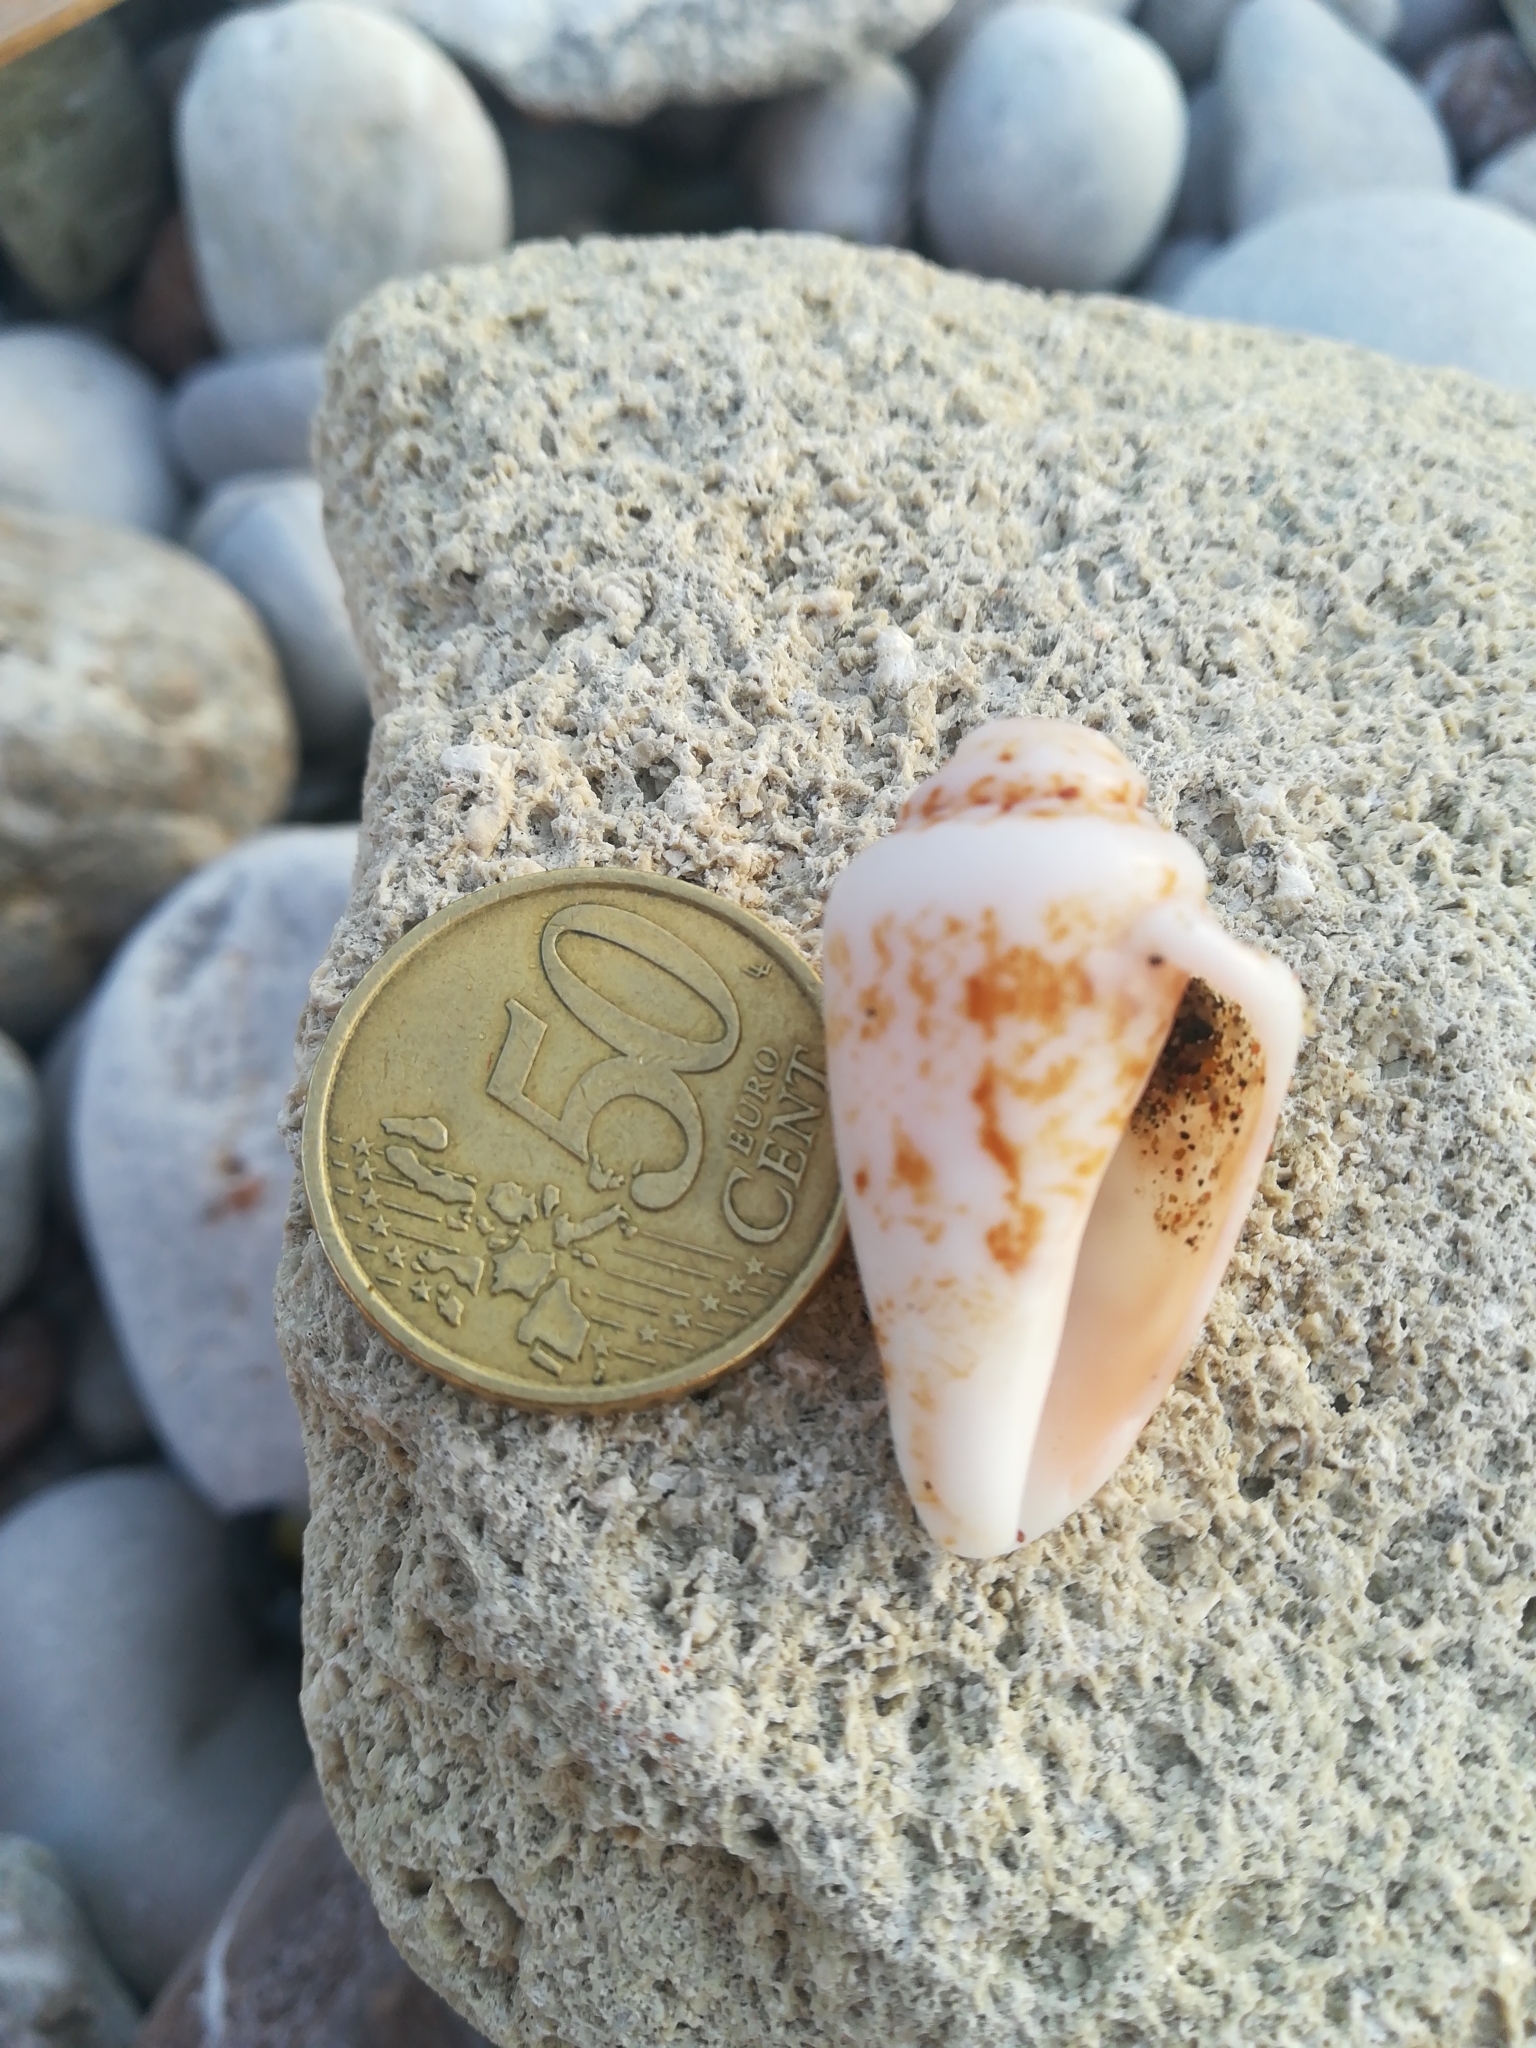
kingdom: Animalia
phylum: Mollusca
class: Gastropoda
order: Littorinimorpha
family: Strombidae
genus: Conomurex
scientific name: Conomurex persicus
